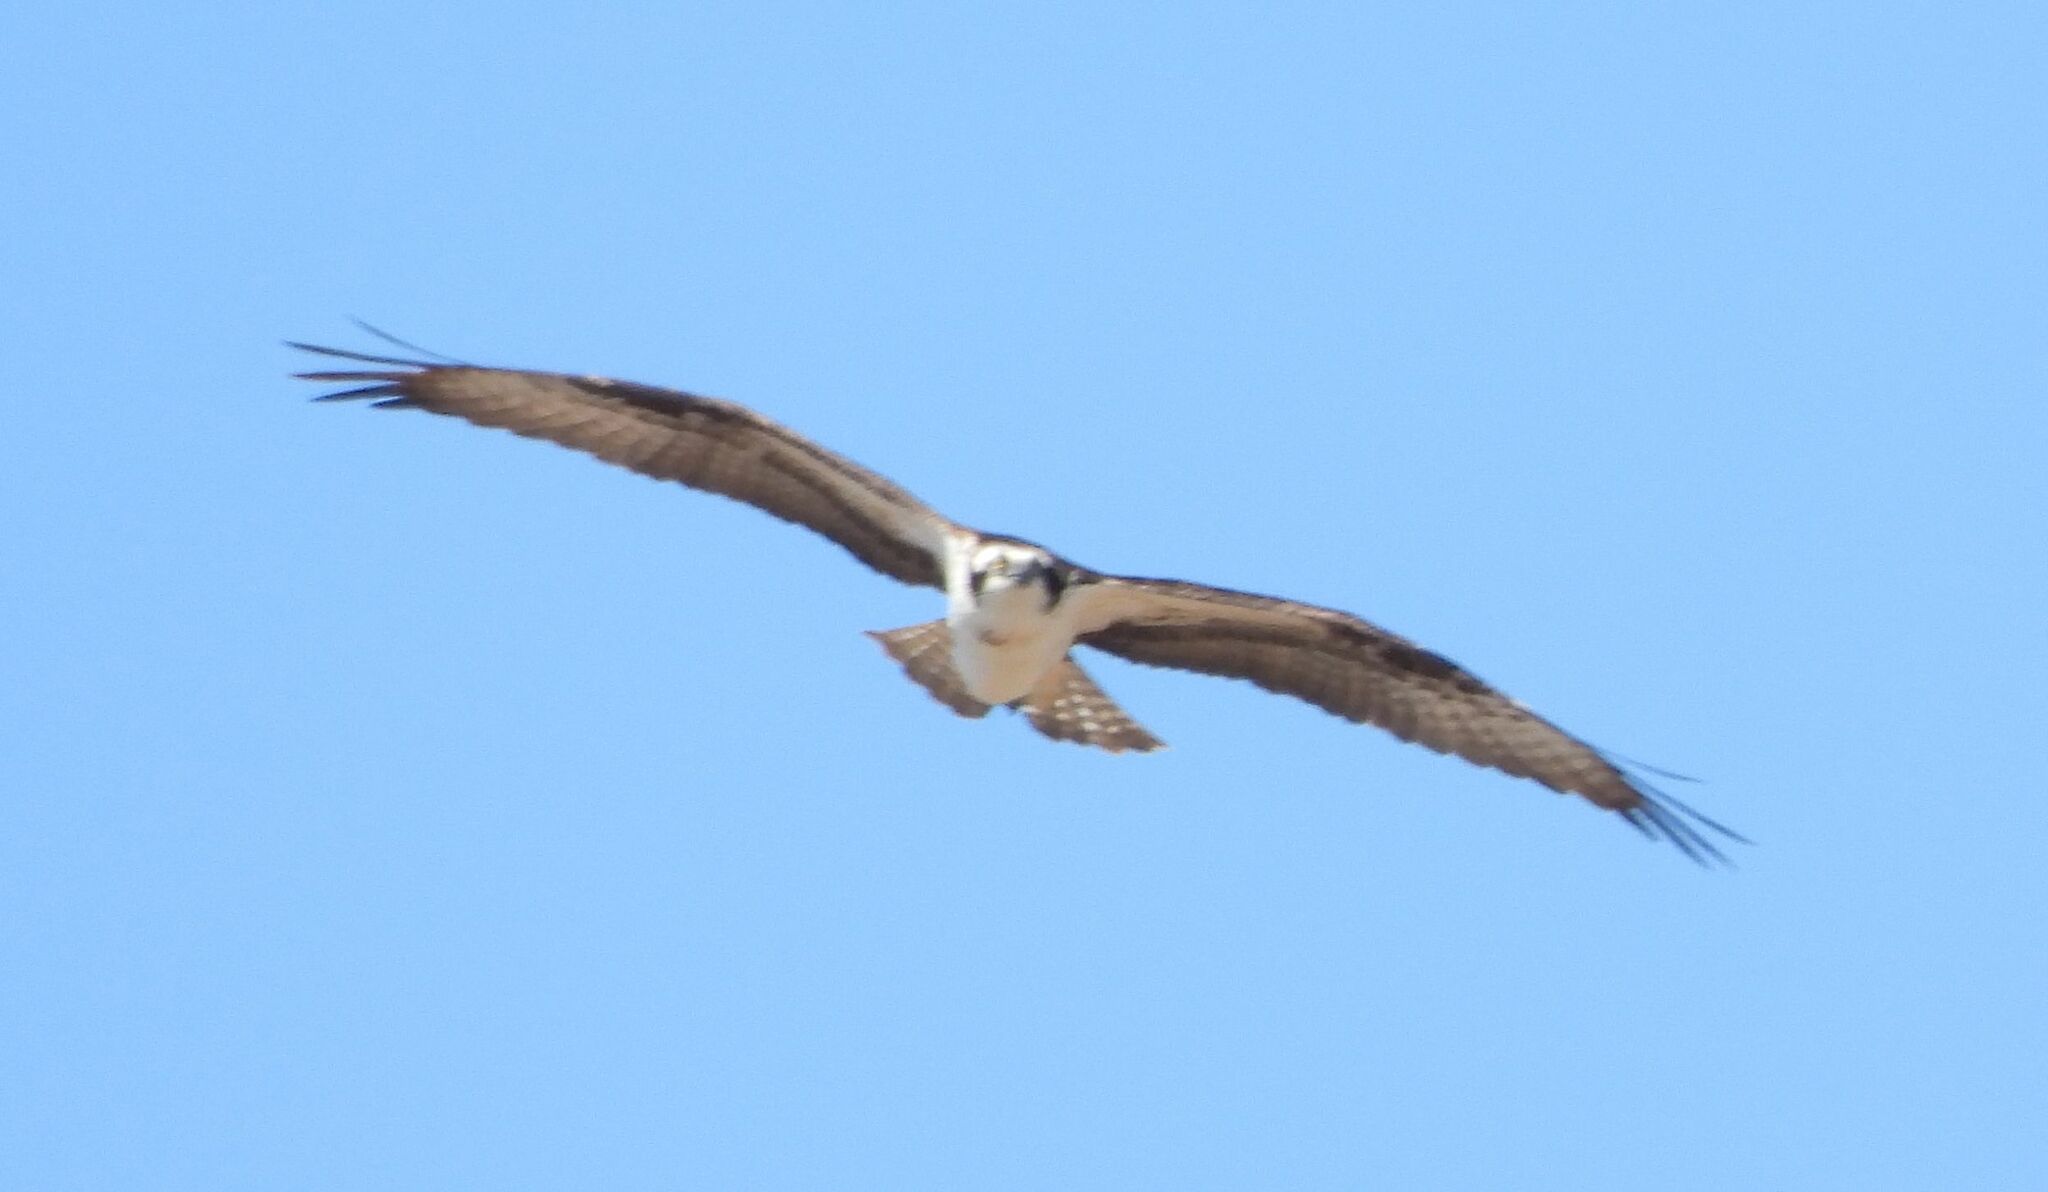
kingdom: Animalia
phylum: Chordata
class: Aves
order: Accipitriformes
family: Pandionidae
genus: Pandion
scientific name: Pandion haliaetus
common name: Osprey
